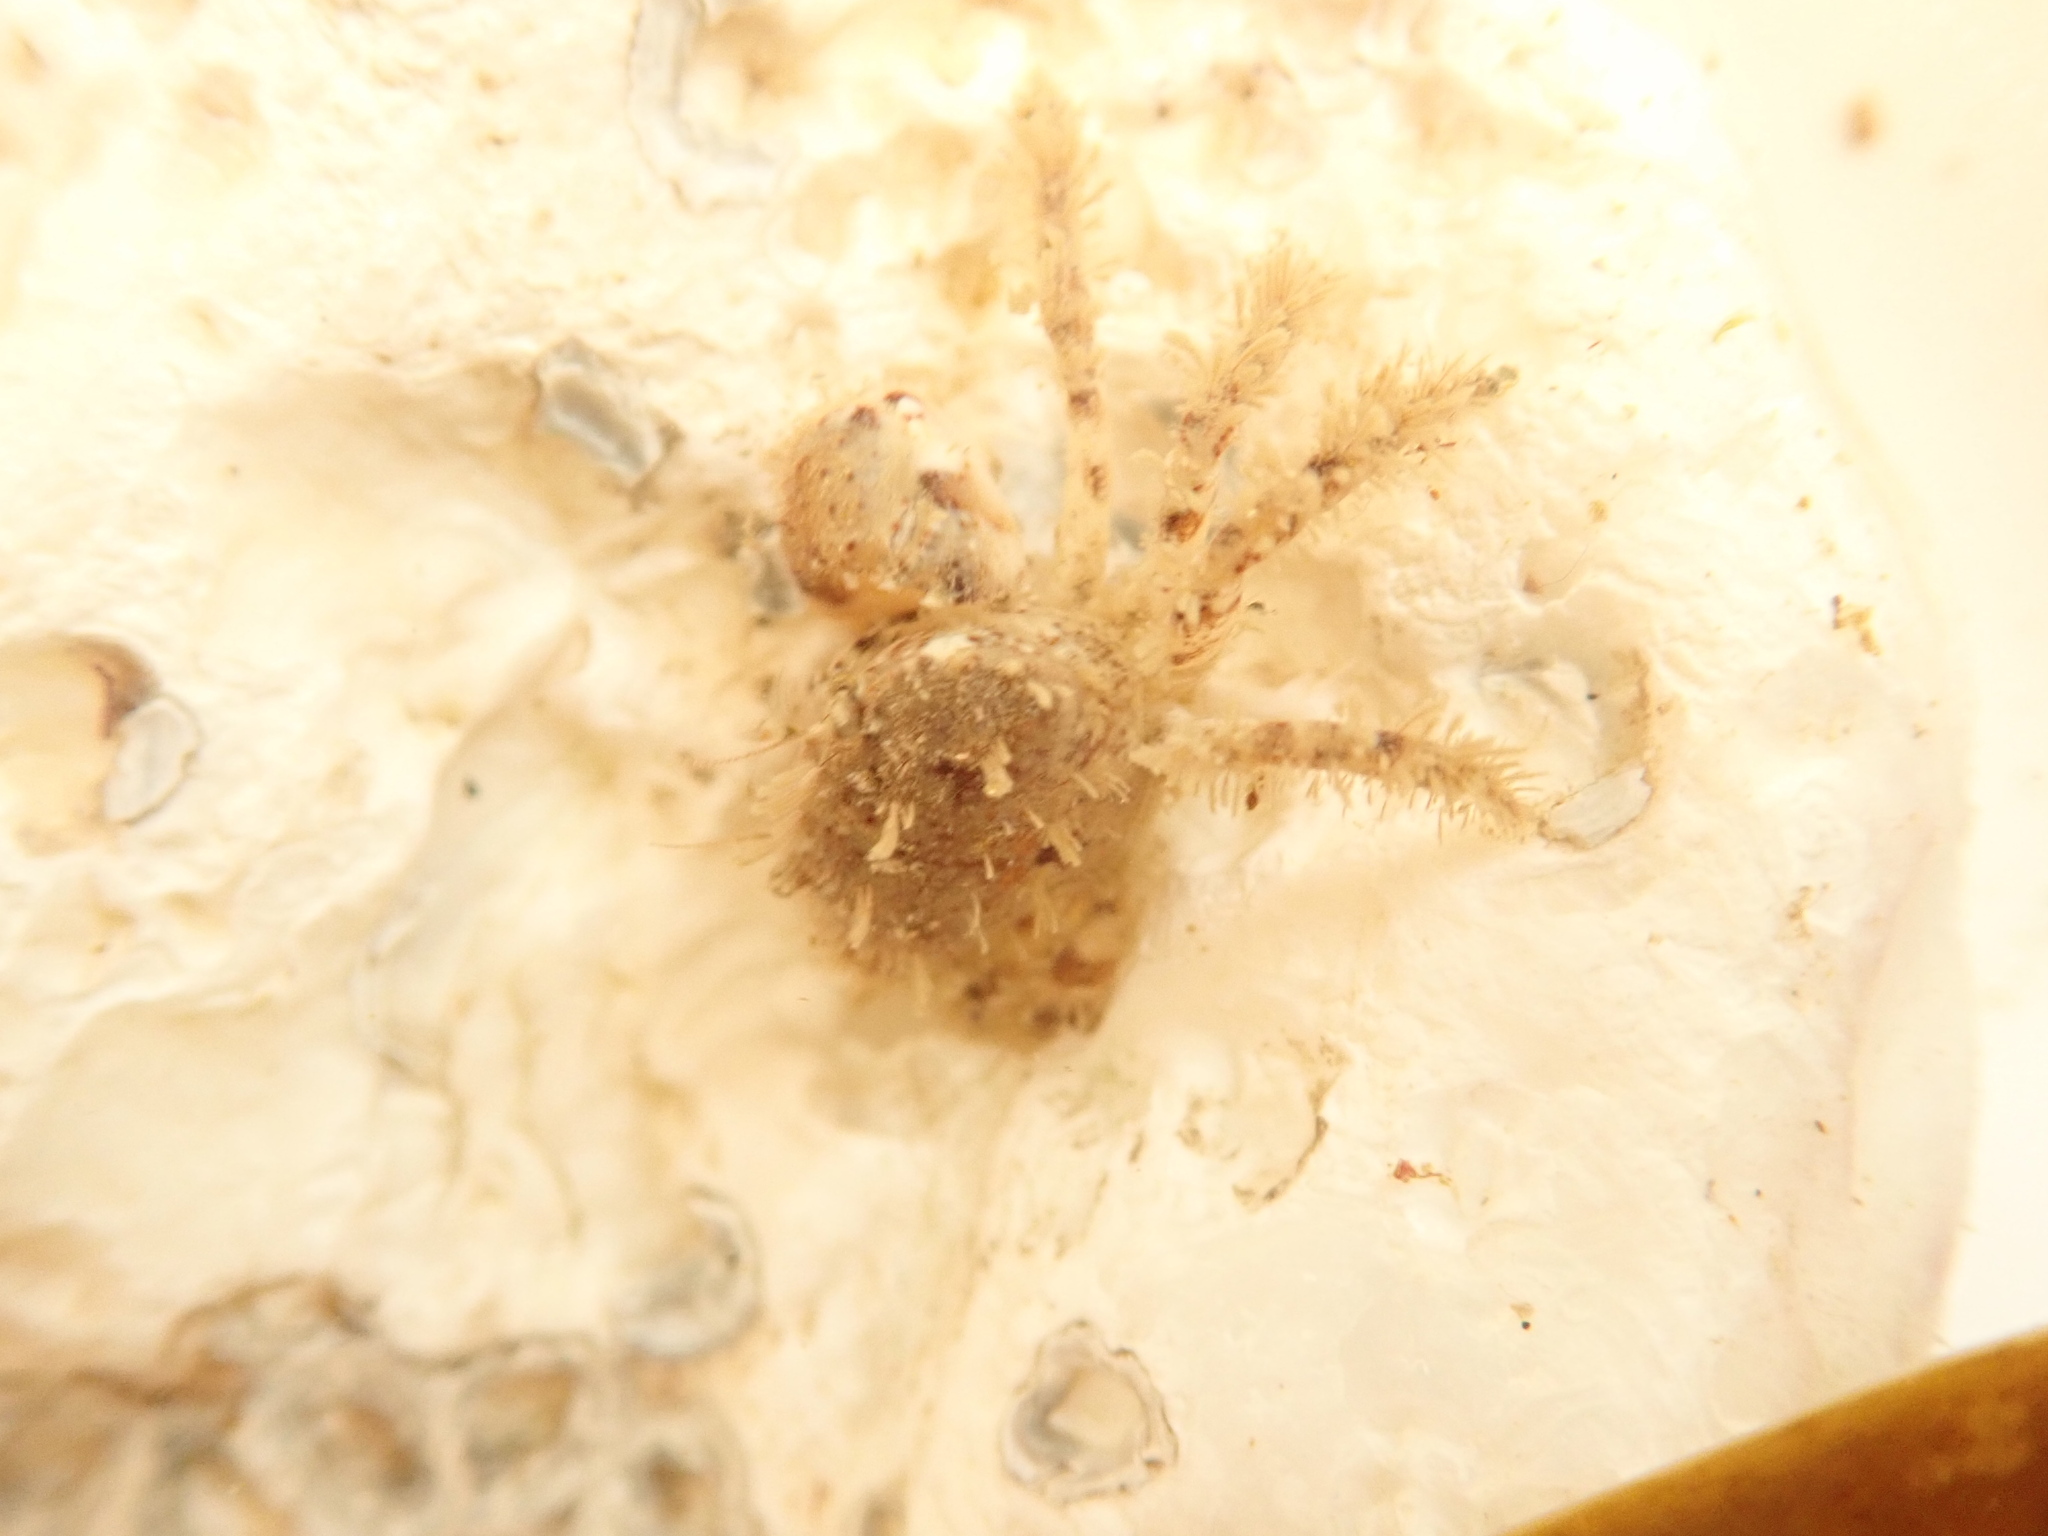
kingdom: Animalia
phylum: Arthropoda
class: Malacostraca
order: Decapoda
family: Pilumnidae
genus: Pilumnus
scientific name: Pilumnus hirtellus
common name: Hairy crab
